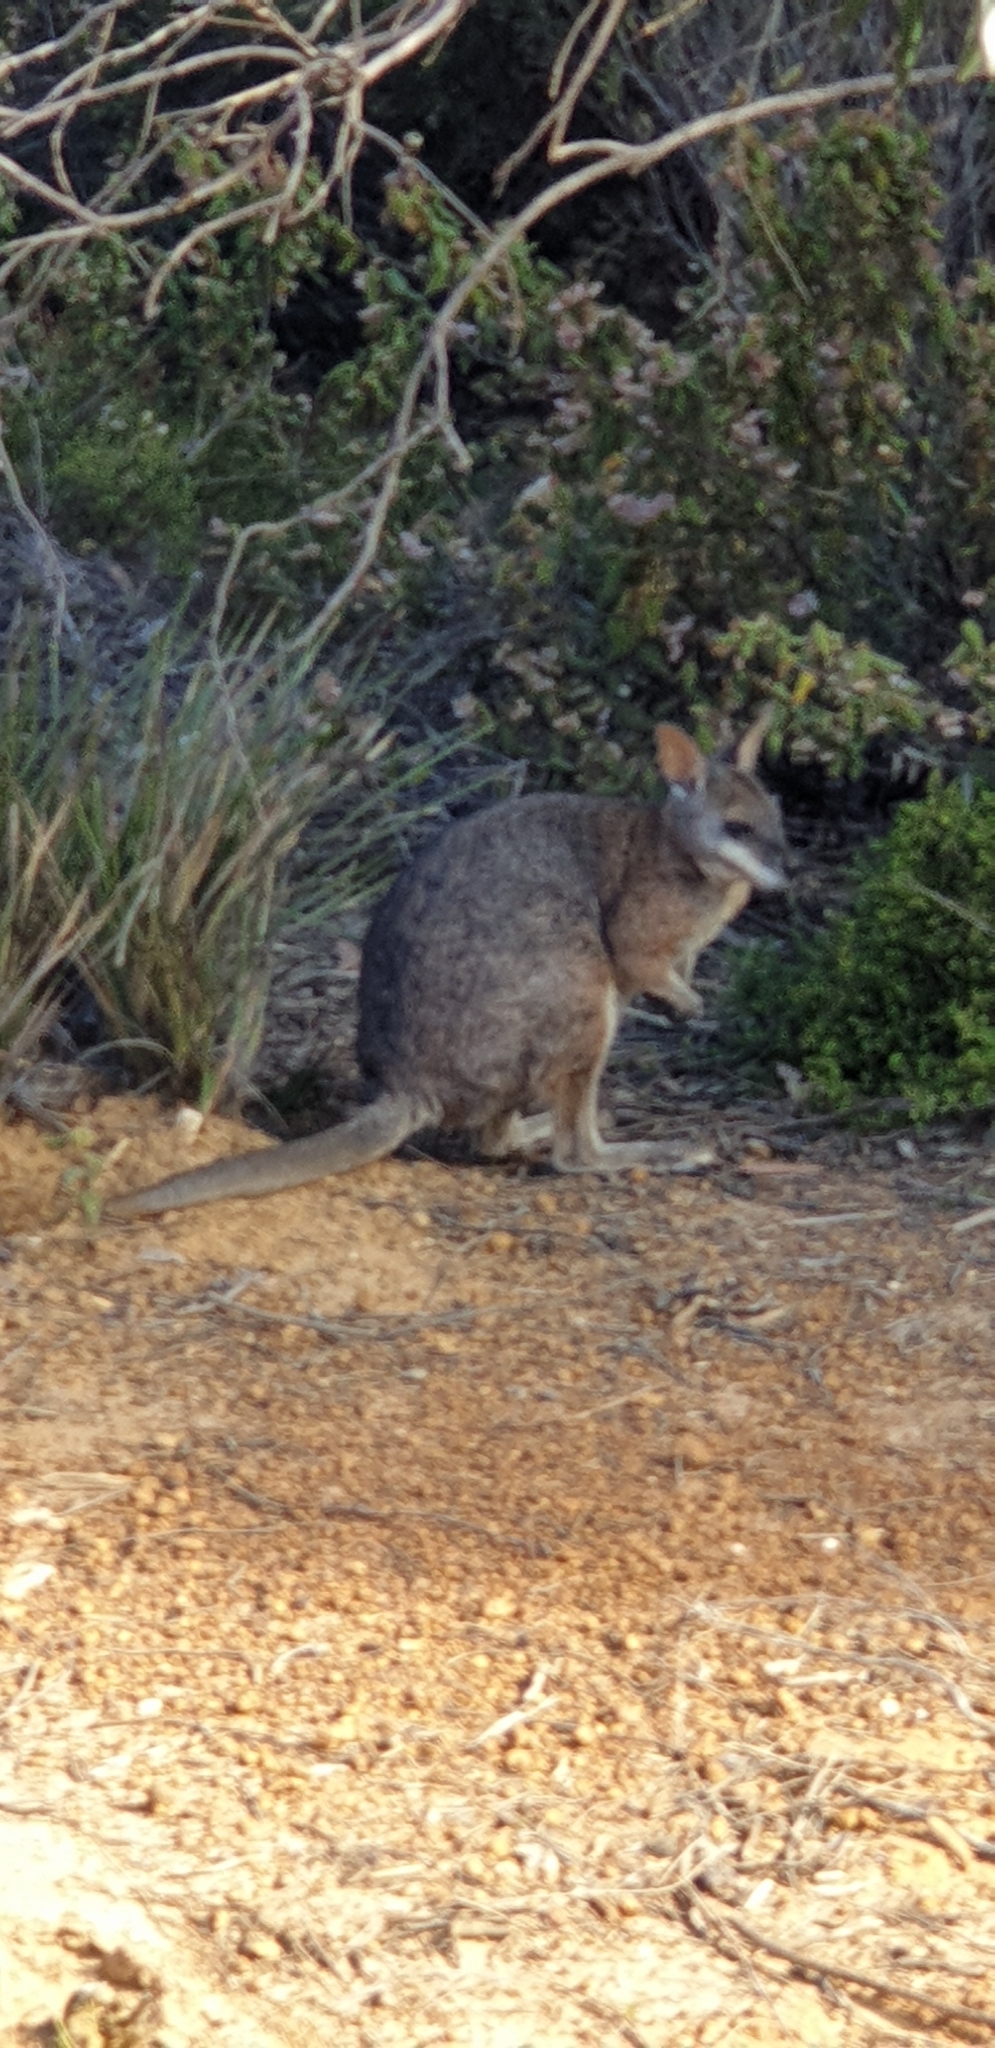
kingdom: Animalia
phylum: Chordata
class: Mammalia
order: Diprotodontia
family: Macropodidae
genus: Macropus
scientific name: Macropus eugenii
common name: Tammar wallaby
